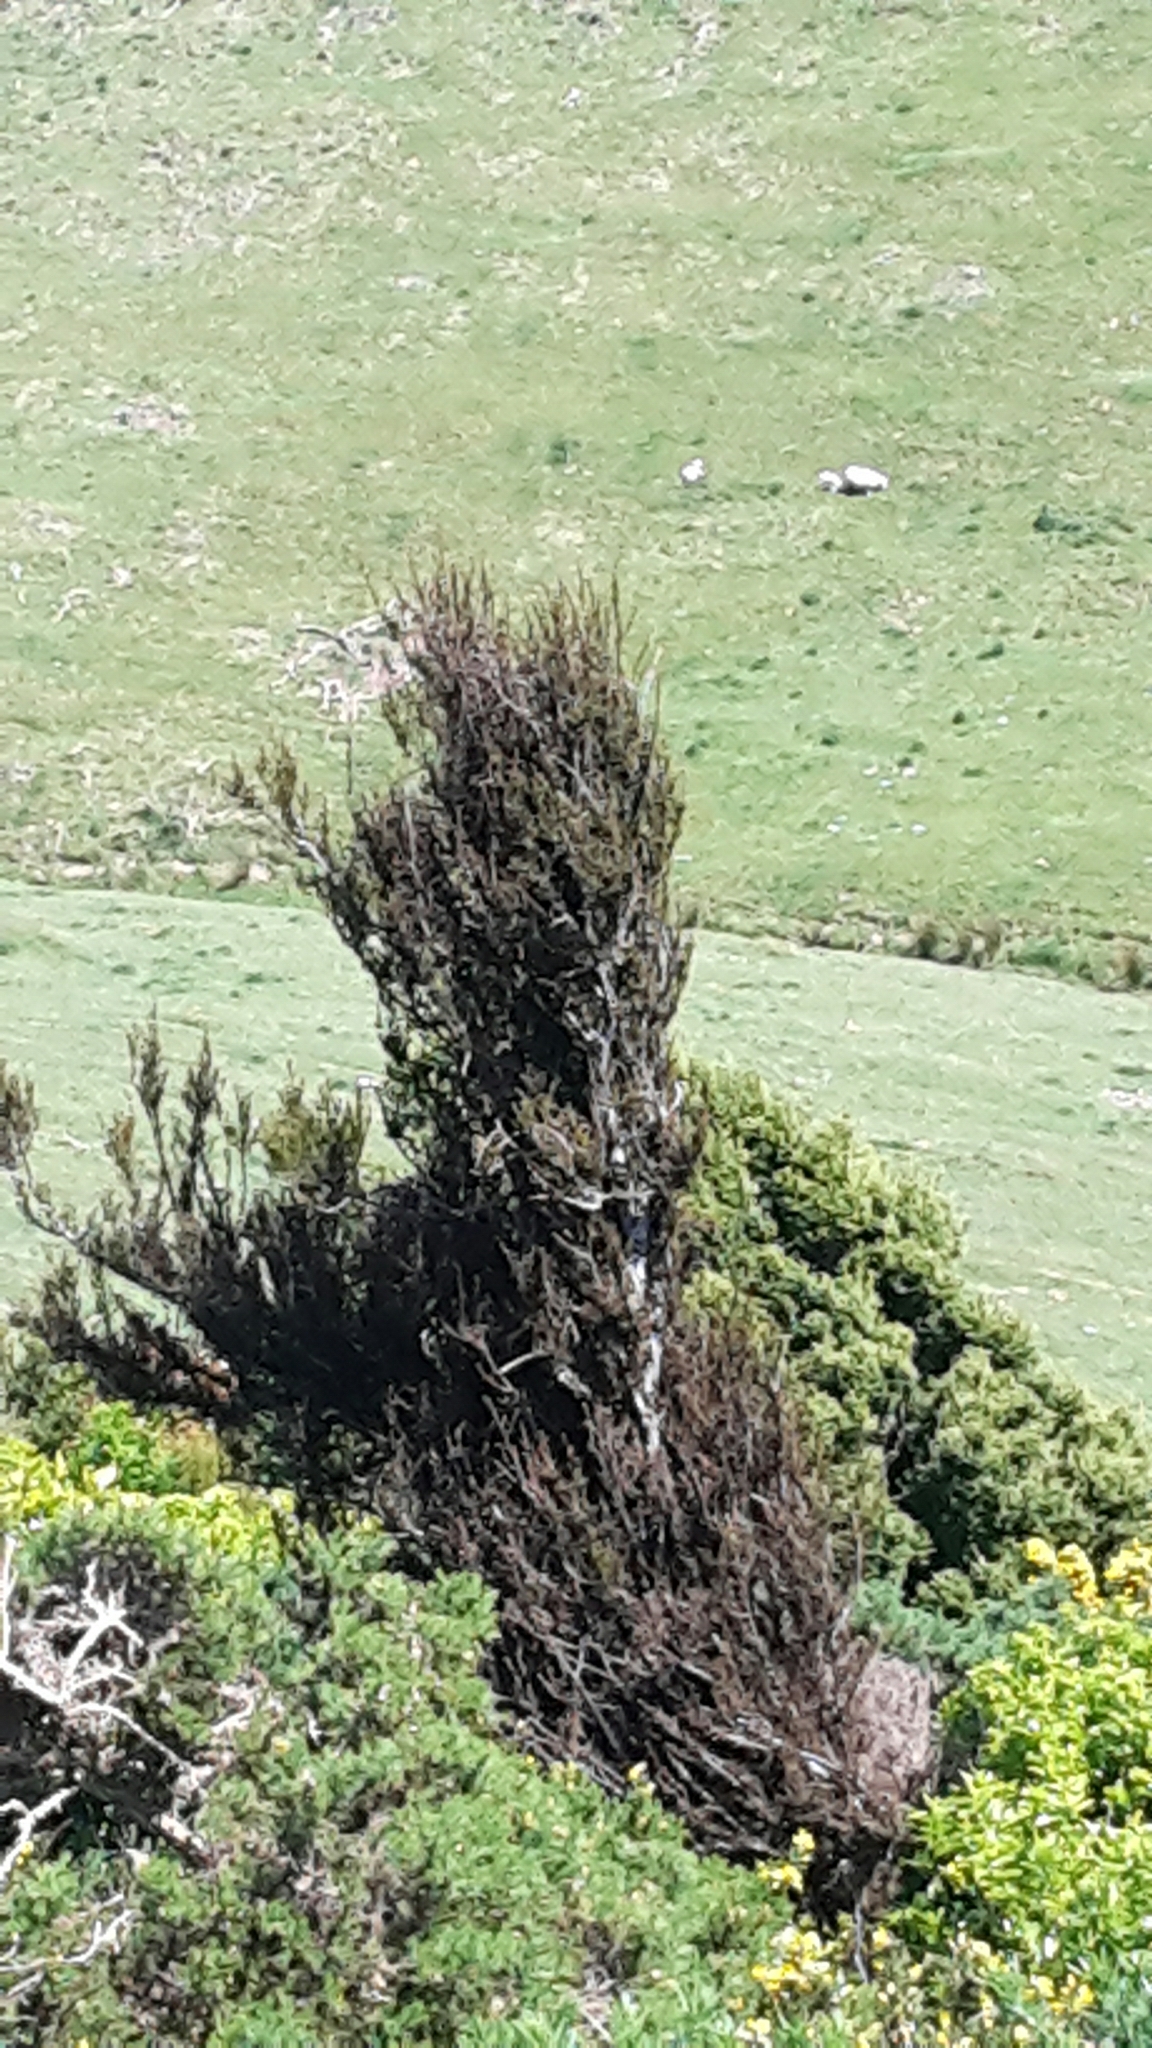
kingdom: Plantae
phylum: Tracheophyta
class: Pinopsida
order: Pinales
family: Podocarpaceae
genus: Dacrycarpus
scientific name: Dacrycarpus dacrydioides
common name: White pine
